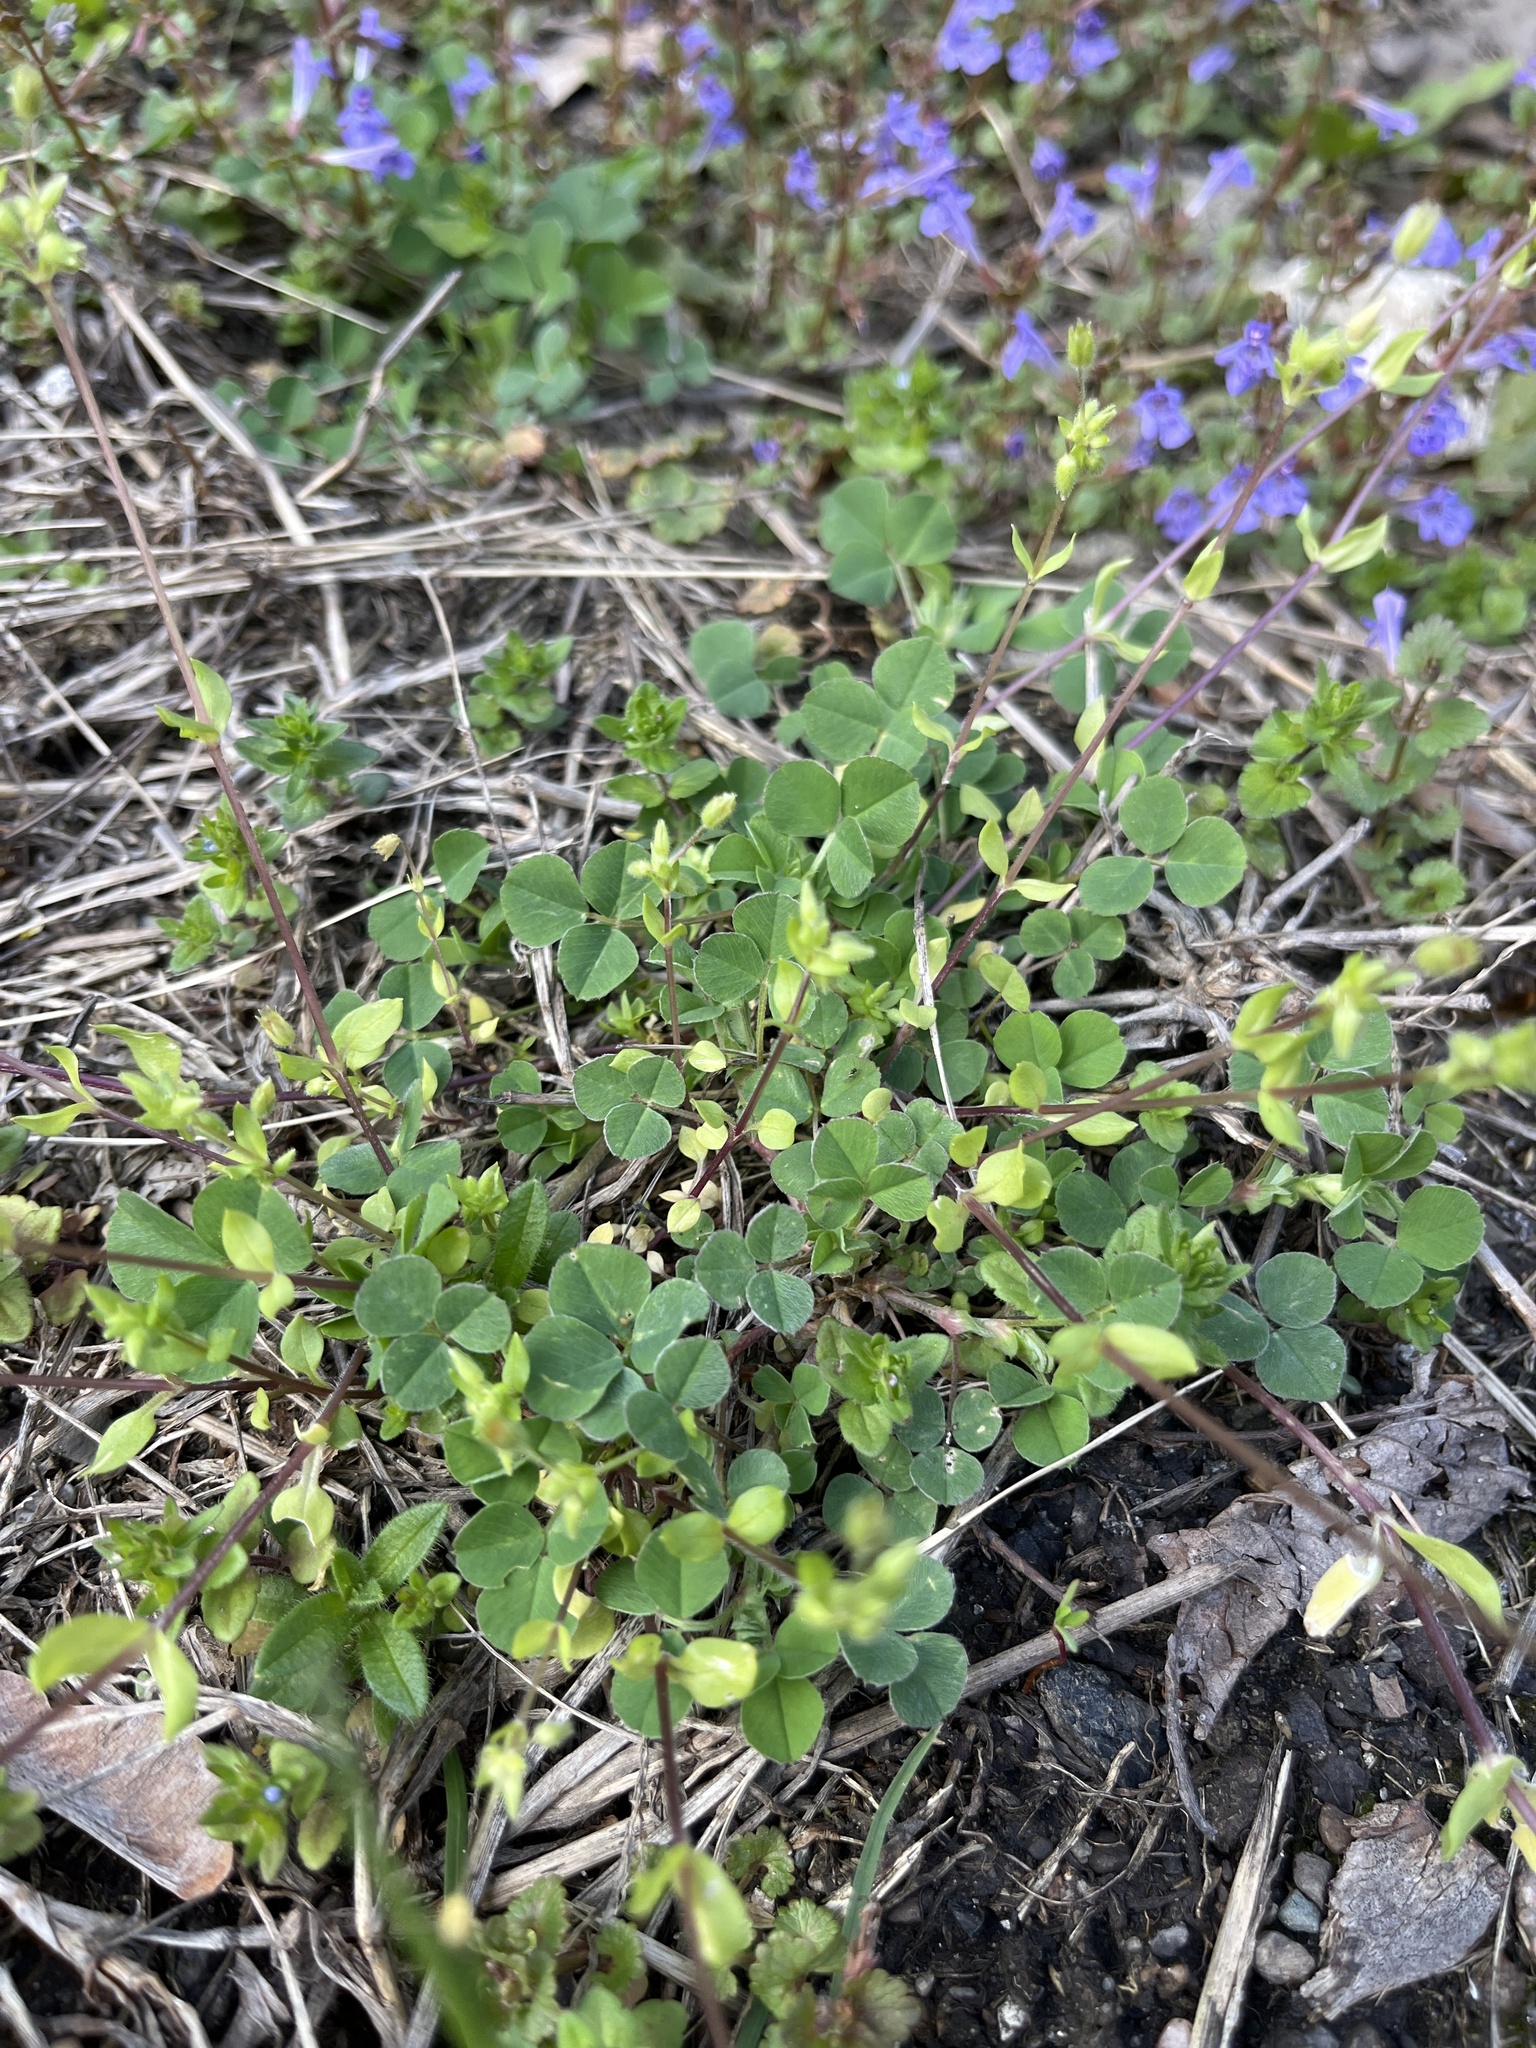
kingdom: Plantae
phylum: Tracheophyta
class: Magnoliopsida
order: Fabales
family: Fabaceae
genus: Medicago
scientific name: Medicago lupulina
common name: Black medick
